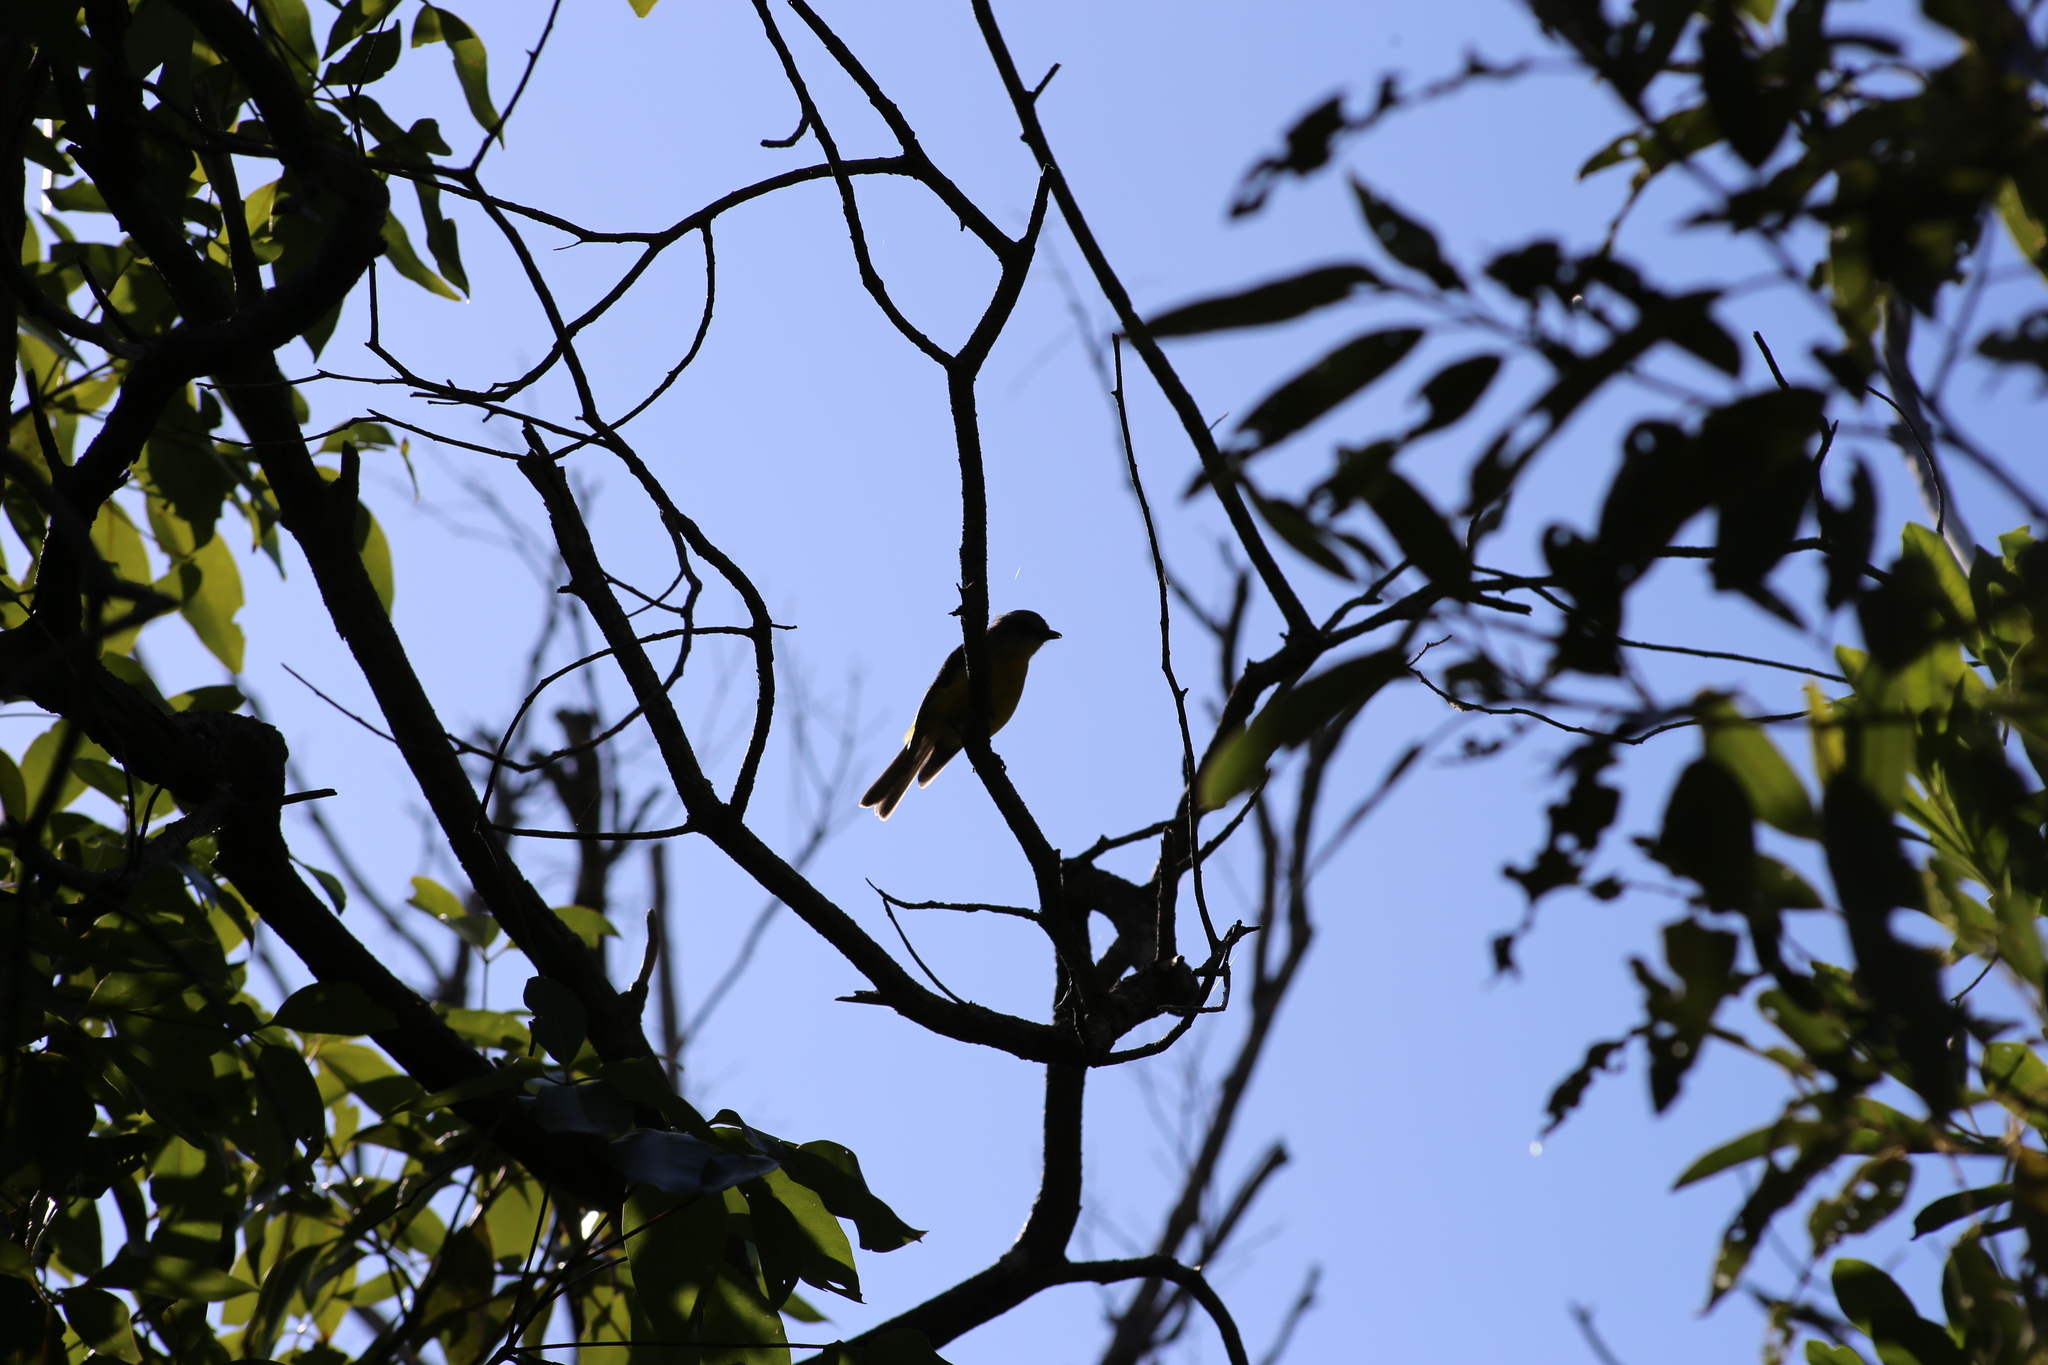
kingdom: Animalia
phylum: Chordata
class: Aves
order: Passeriformes
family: Petroicidae
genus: Eopsaltria
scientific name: Eopsaltria australis
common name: Eastern yellow robin
